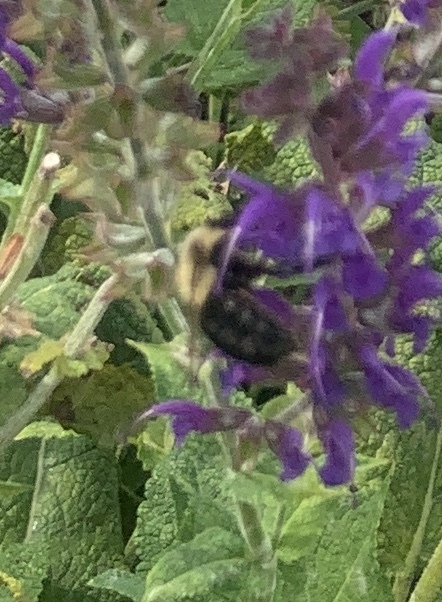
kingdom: Animalia
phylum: Arthropoda
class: Insecta
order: Hymenoptera
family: Apidae
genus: Bombus
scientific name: Bombus impatiens
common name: Common eastern bumble bee
